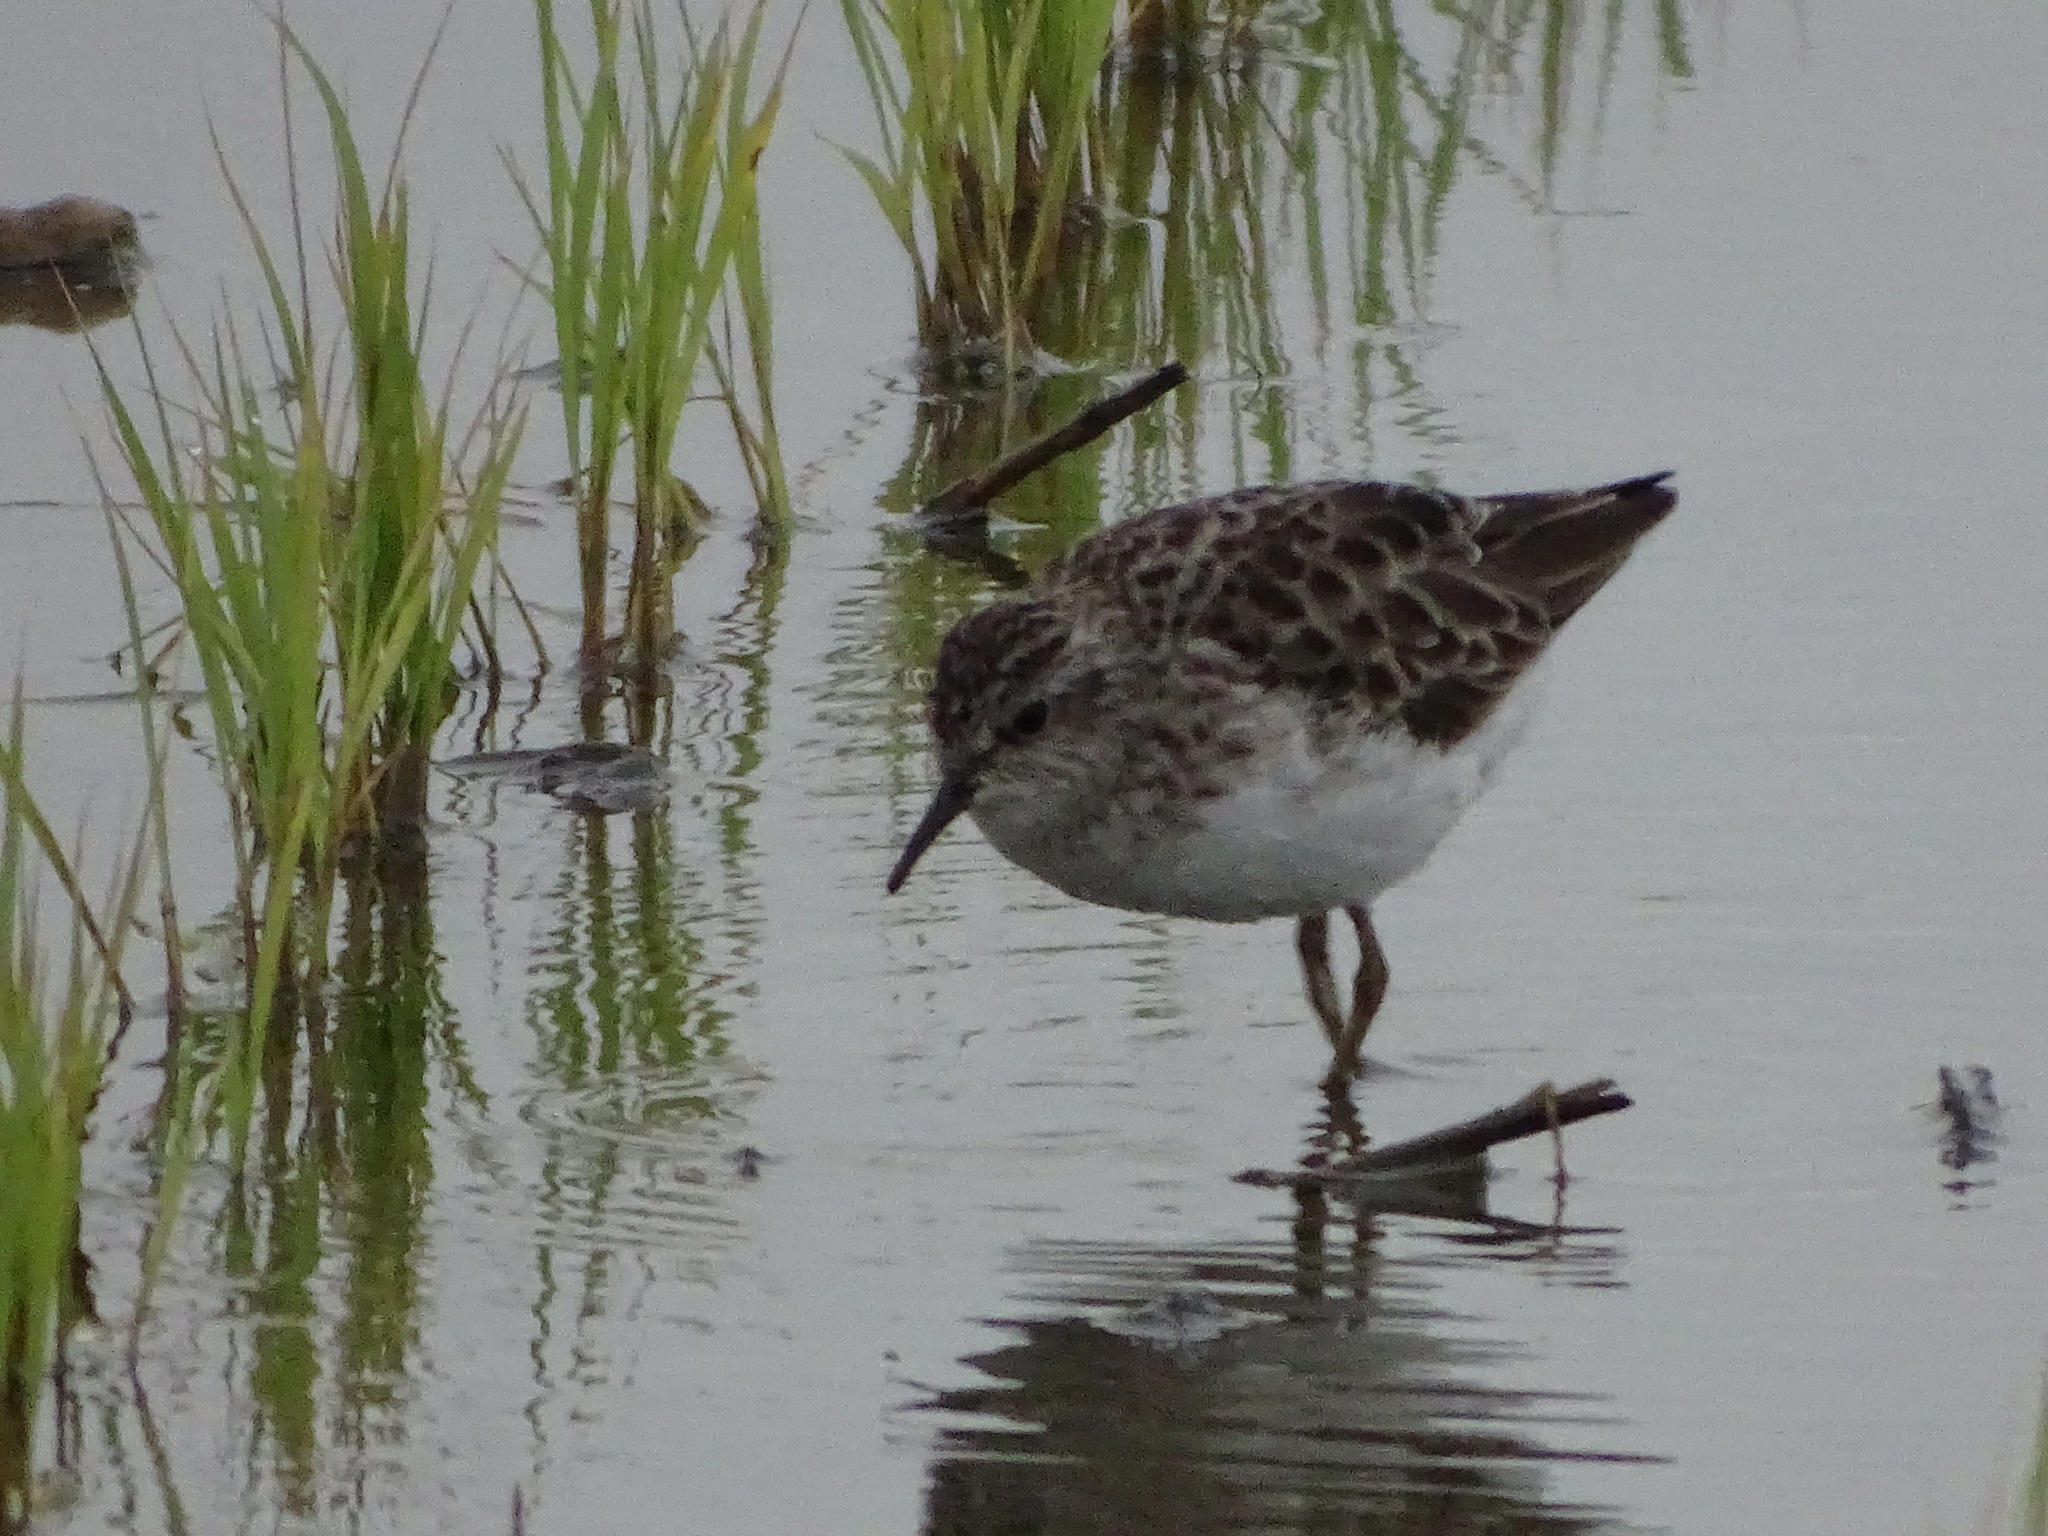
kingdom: Animalia
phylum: Chordata
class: Aves
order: Charadriiformes
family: Scolopacidae
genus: Calidris
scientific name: Calidris subminuta
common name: Long-toed stint
